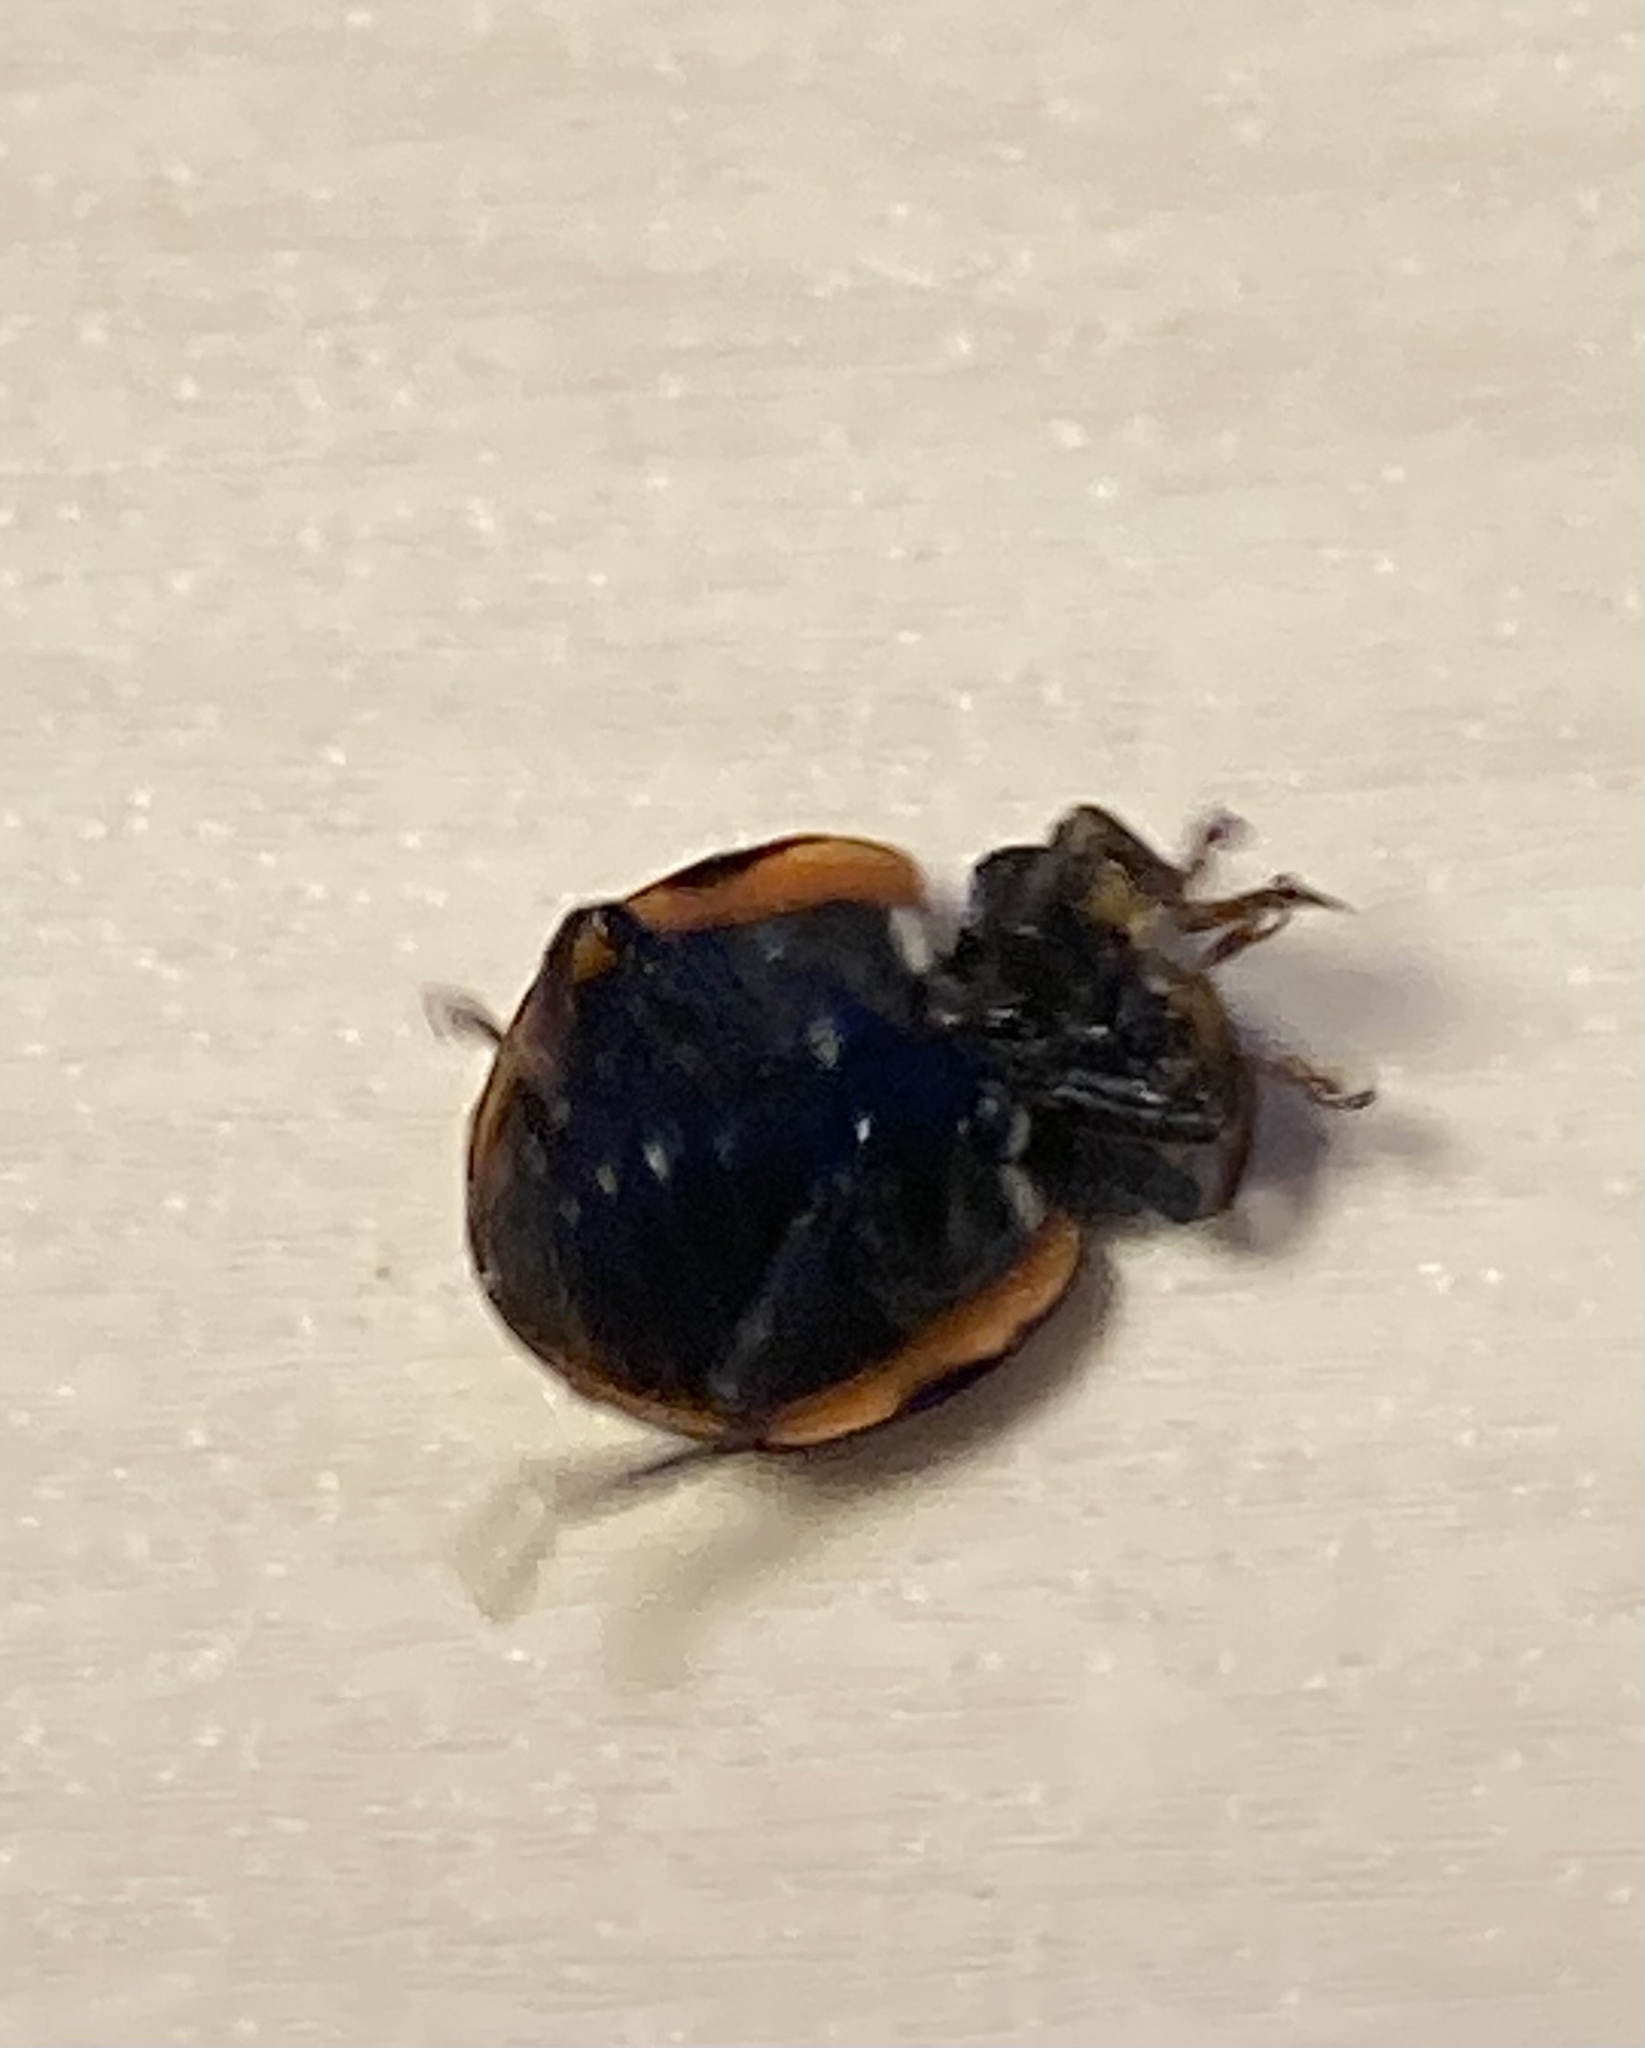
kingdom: Animalia
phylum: Arthropoda
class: Insecta
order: Coleoptera
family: Coccinellidae
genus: Anatis
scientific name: Anatis ocellata
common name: Eyed ladybird
